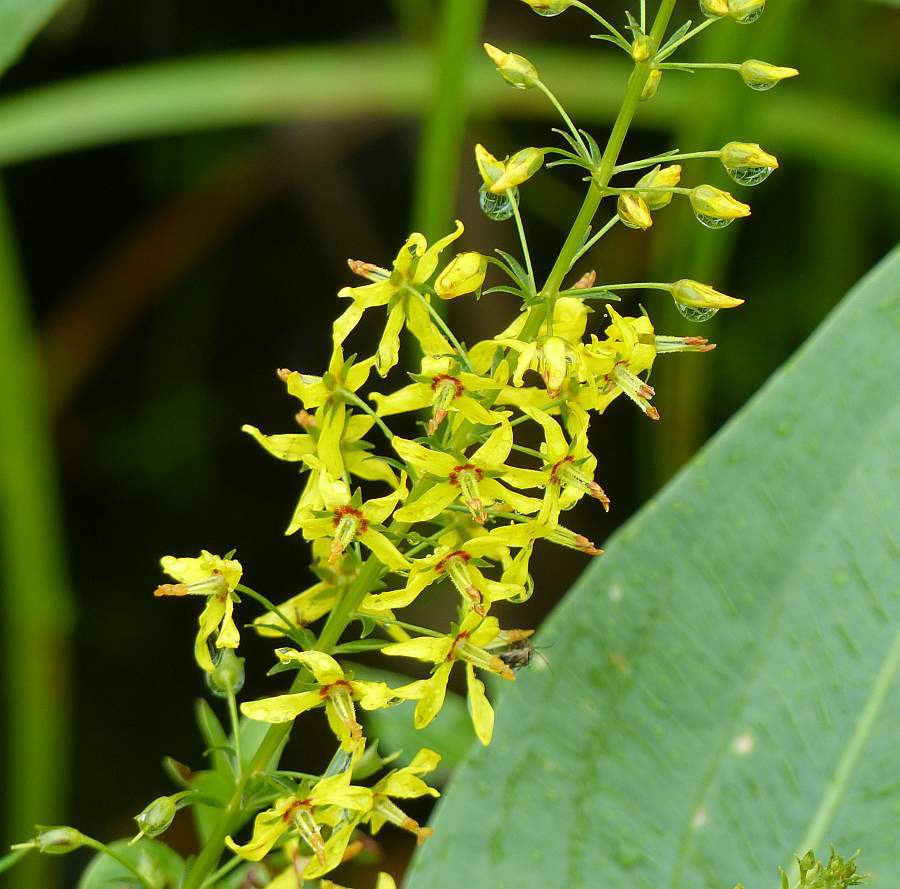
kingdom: Plantae
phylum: Tracheophyta
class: Magnoliopsida
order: Ericales
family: Primulaceae
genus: Lysimachia
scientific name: Lysimachia terrestris
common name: Lake loosestrife
